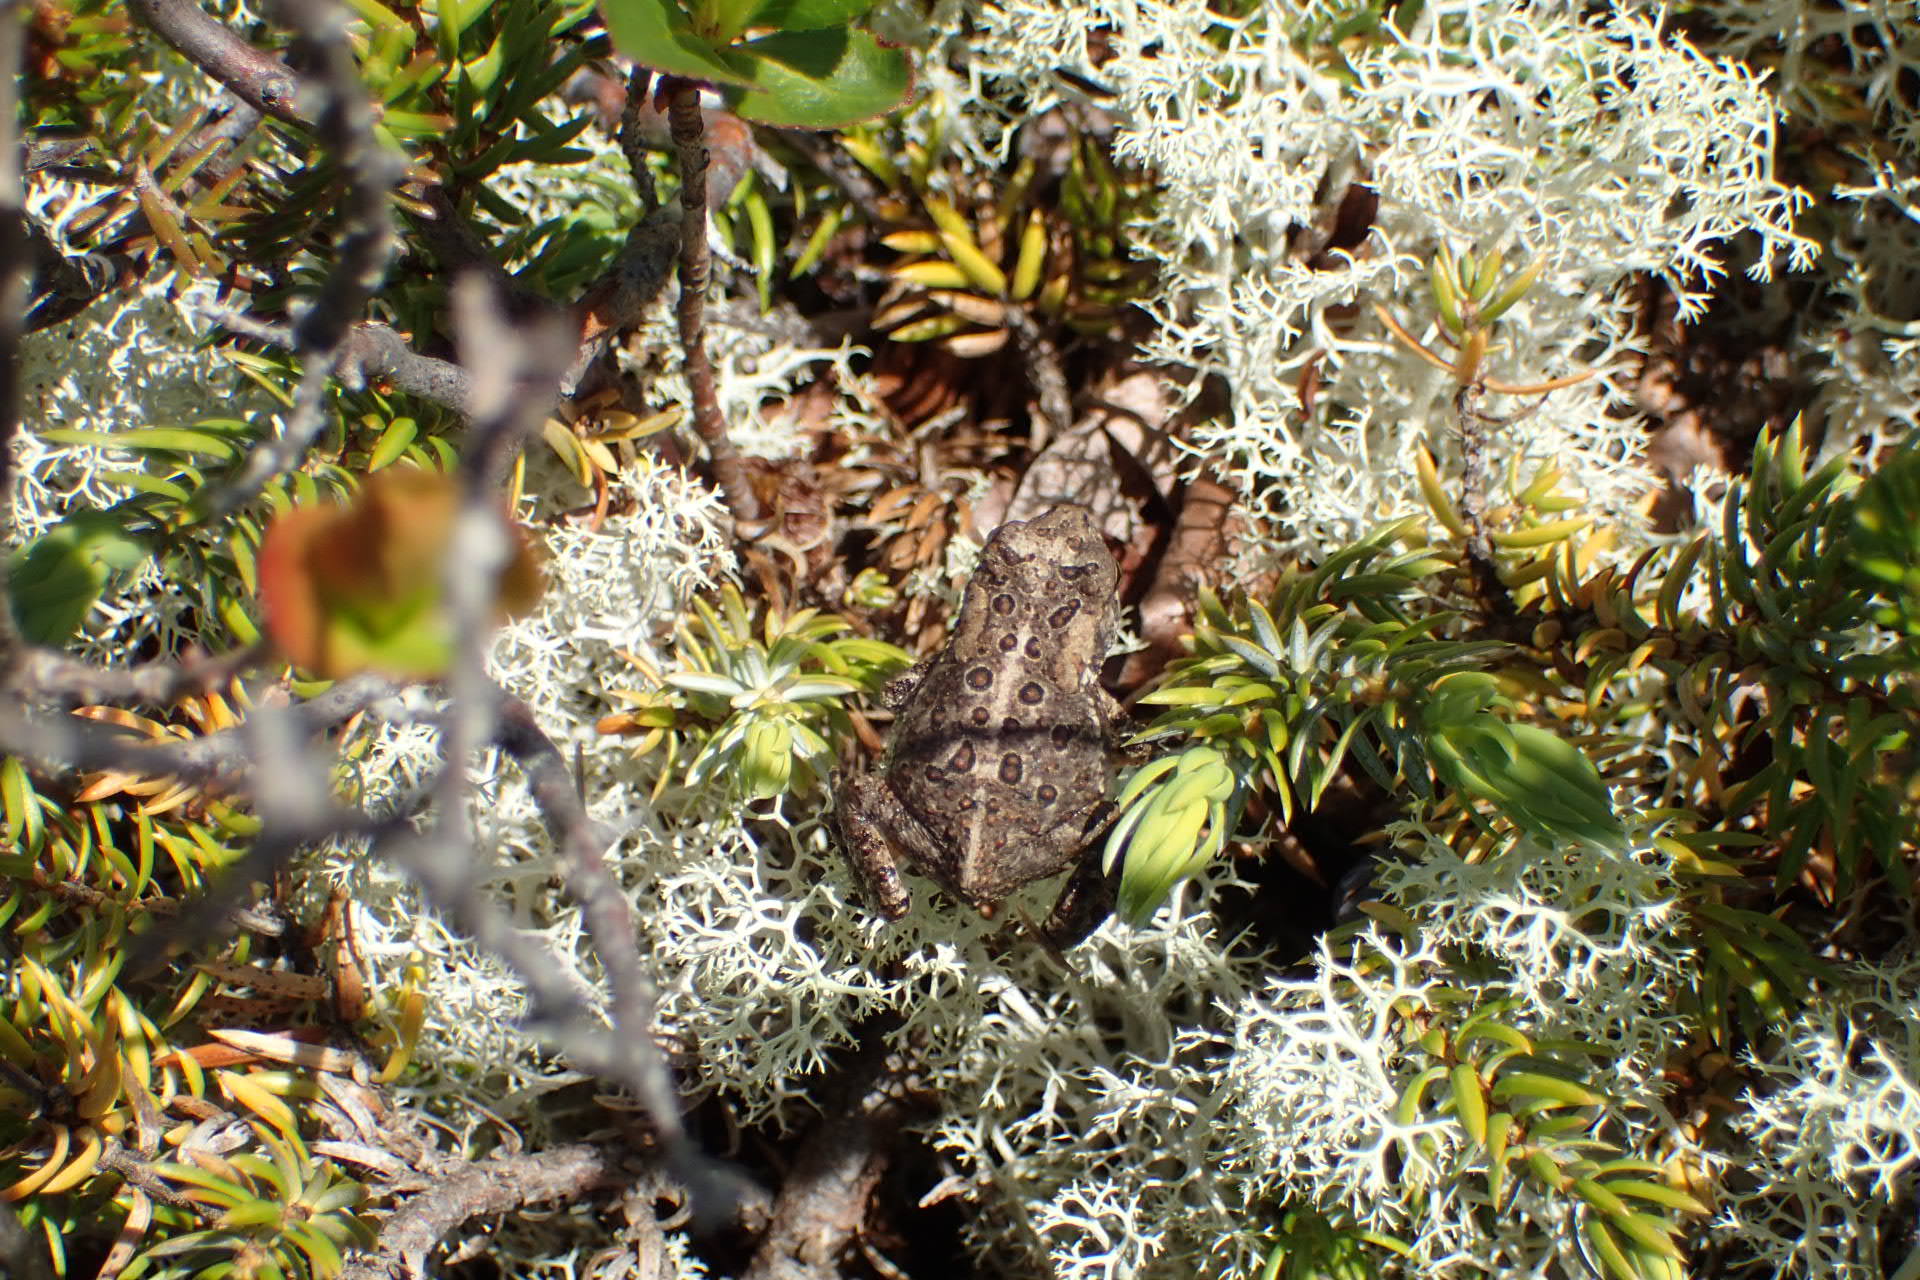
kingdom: Animalia
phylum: Chordata
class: Amphibia
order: Anura
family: Bufonidae
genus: Anaxyrus
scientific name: Anaxyrus americanus
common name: American toad
